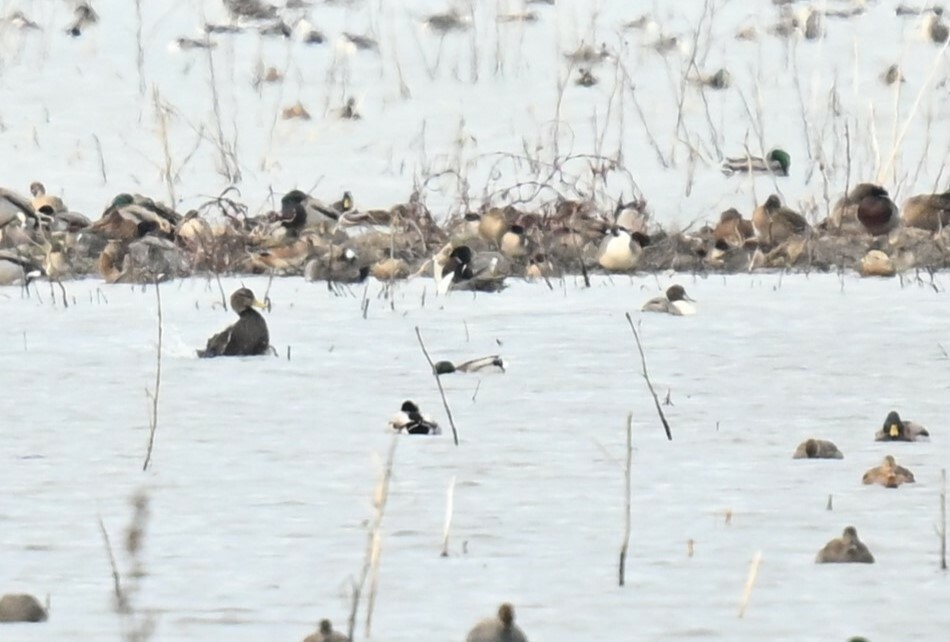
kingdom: Animalia
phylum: Chordata
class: Aves
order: Anseriformes
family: Anatidae
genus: Anas
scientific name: Anas rubripes
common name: American black duck
